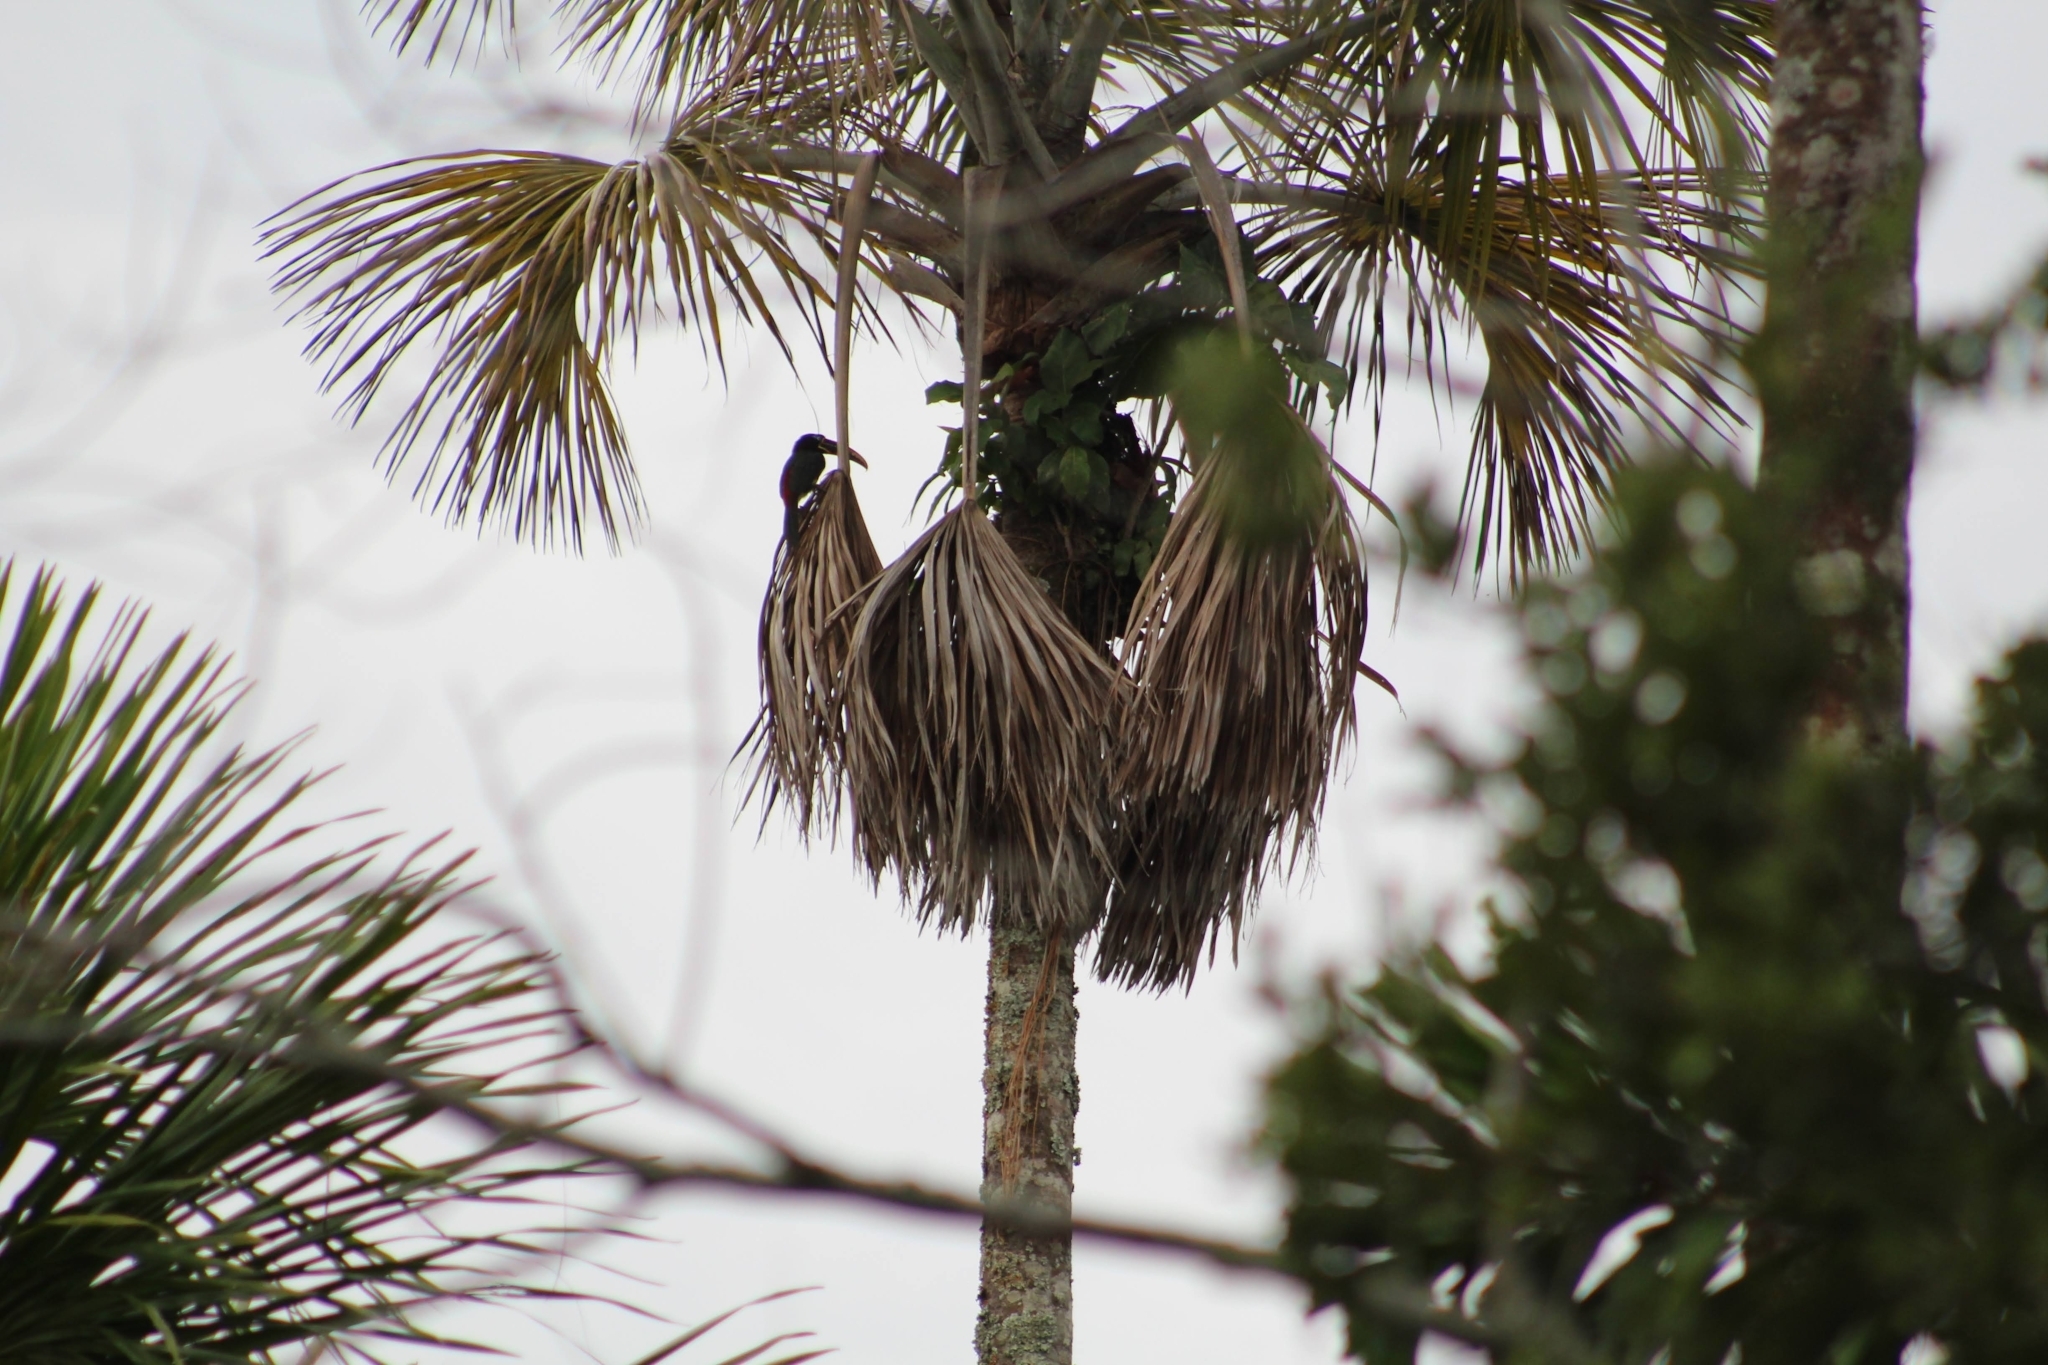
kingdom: Animalia
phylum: Chordata
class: Aves
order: Piciformes
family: Ramphastidae
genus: Pteroglossus
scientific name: Pteroglossus castanotis
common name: Chestnut-eared aracari
